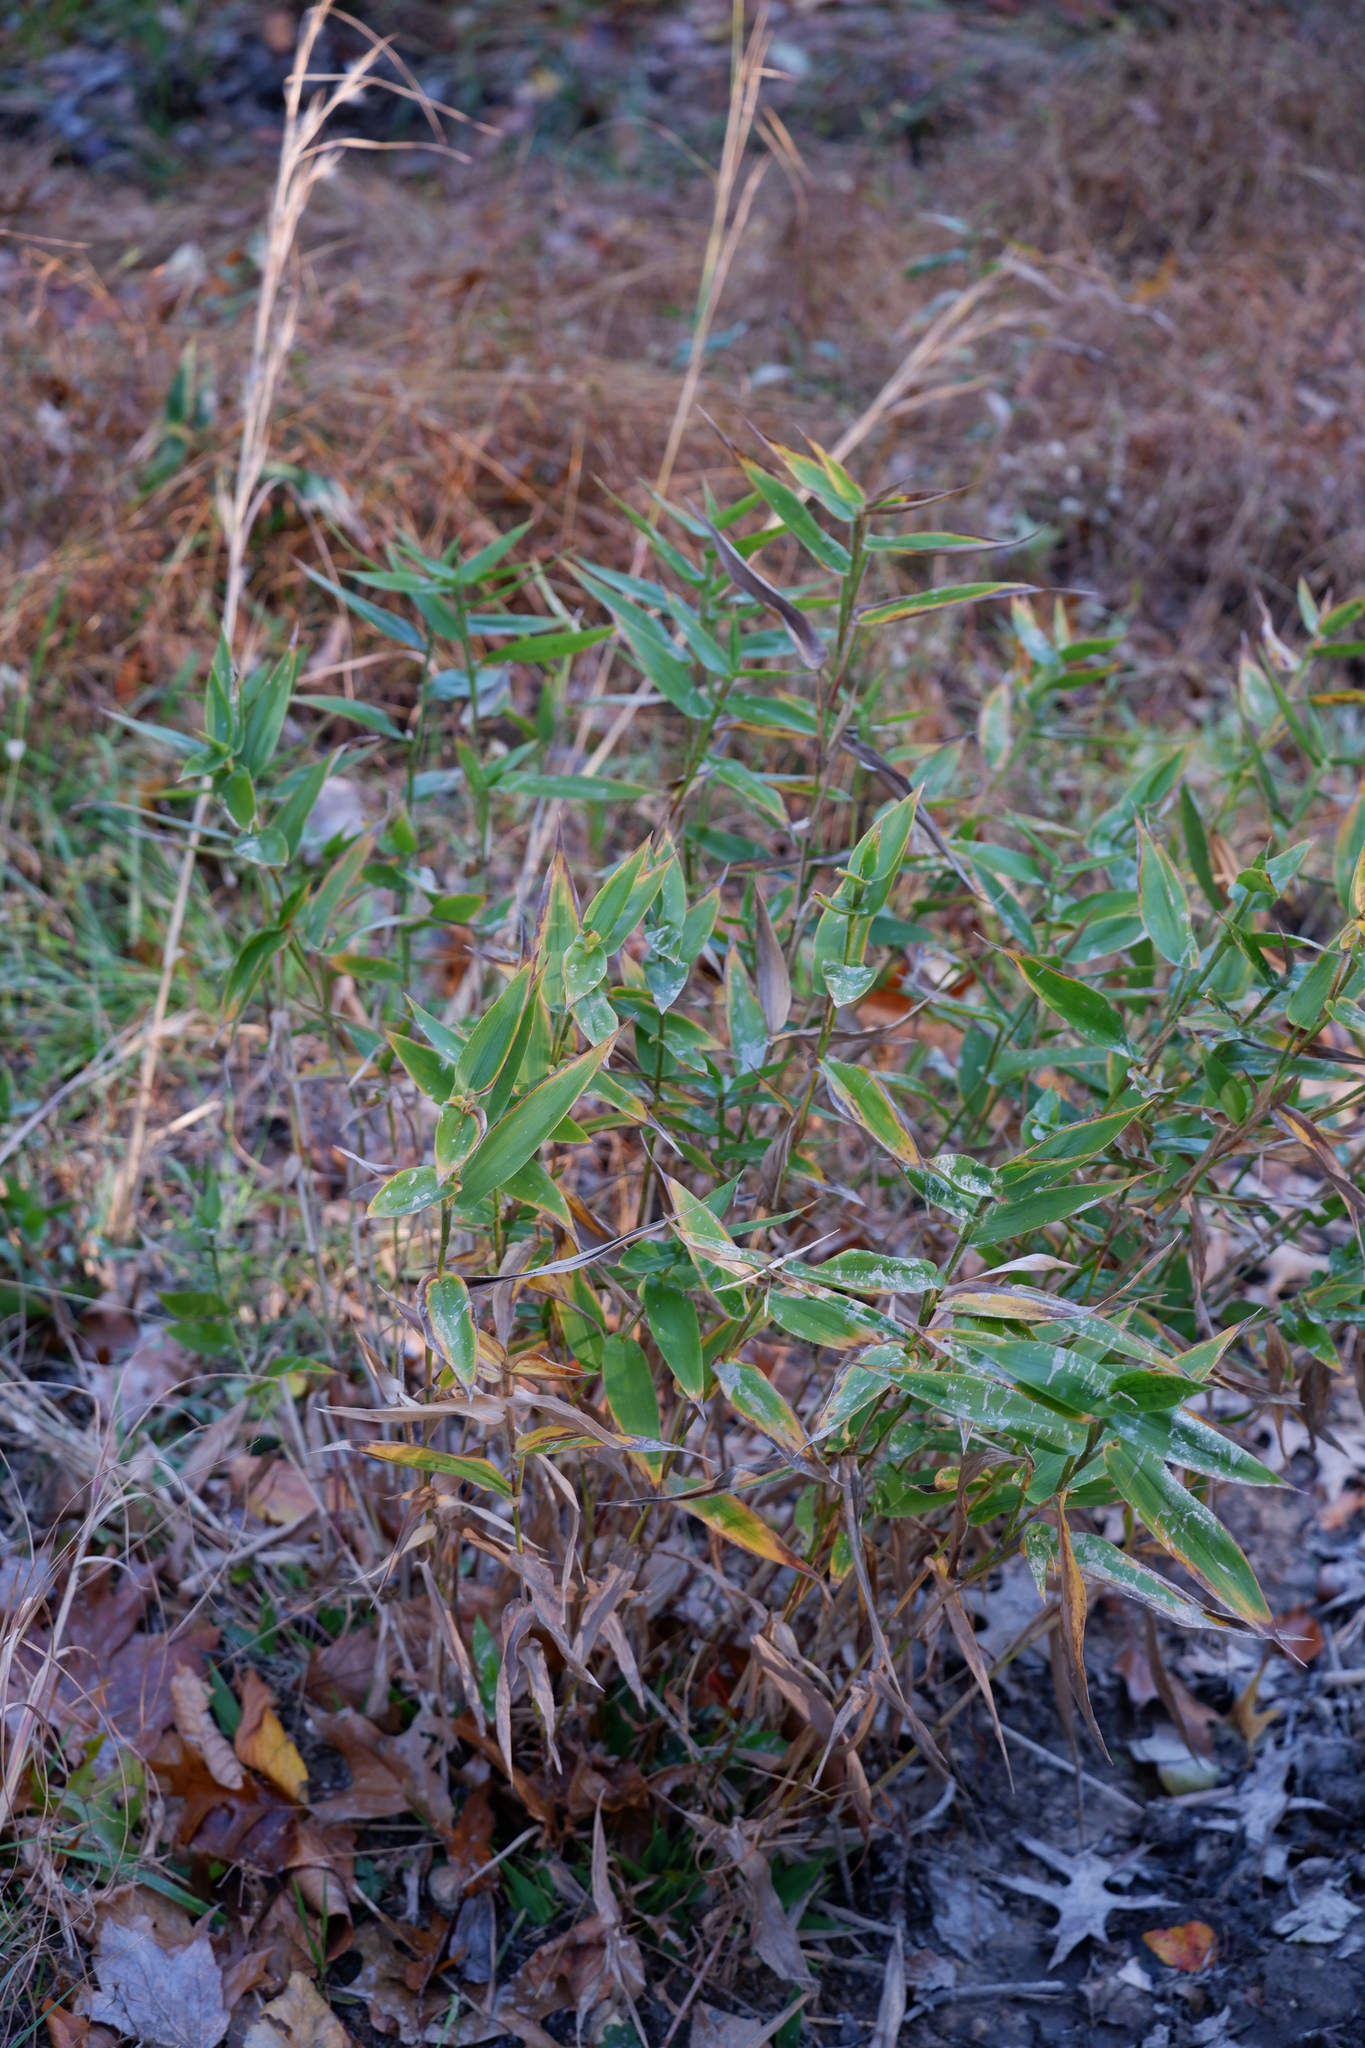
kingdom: Plantae
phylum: Tracheophyta
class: Liliopsida
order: Poales
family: Poaceae
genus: Dichanthelium
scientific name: Dichanthelium clandestinum
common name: Deer-tongue grass
